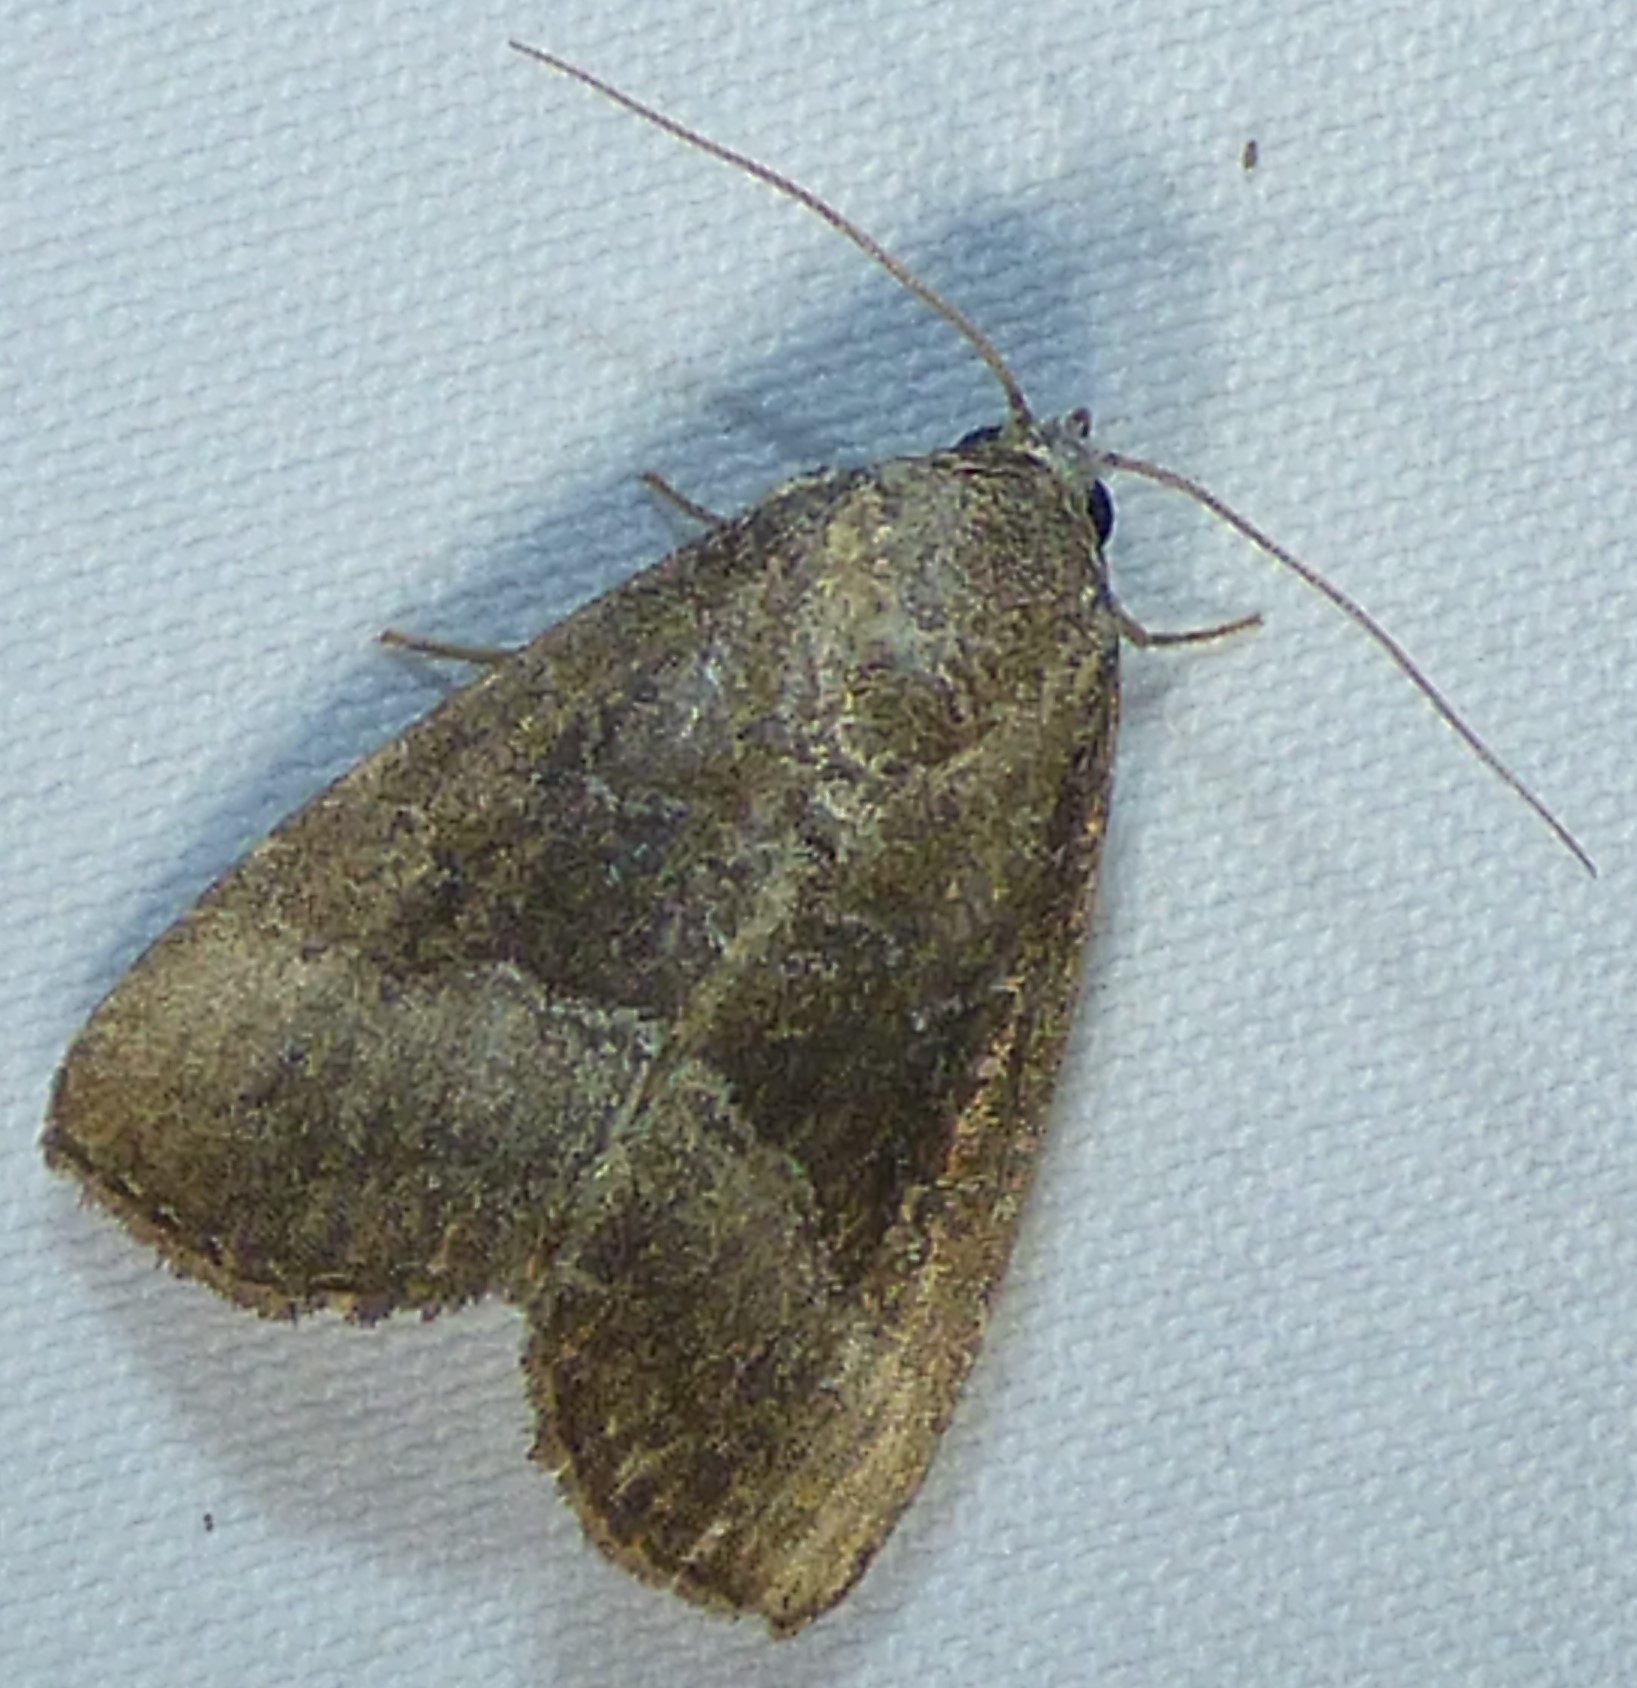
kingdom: Animalia
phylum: Arthropoda
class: Insecta
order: Lepidoptera
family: Noctuidae
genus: Ogdoconta
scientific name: Ogdoconta cinereola
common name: Common pinkband
